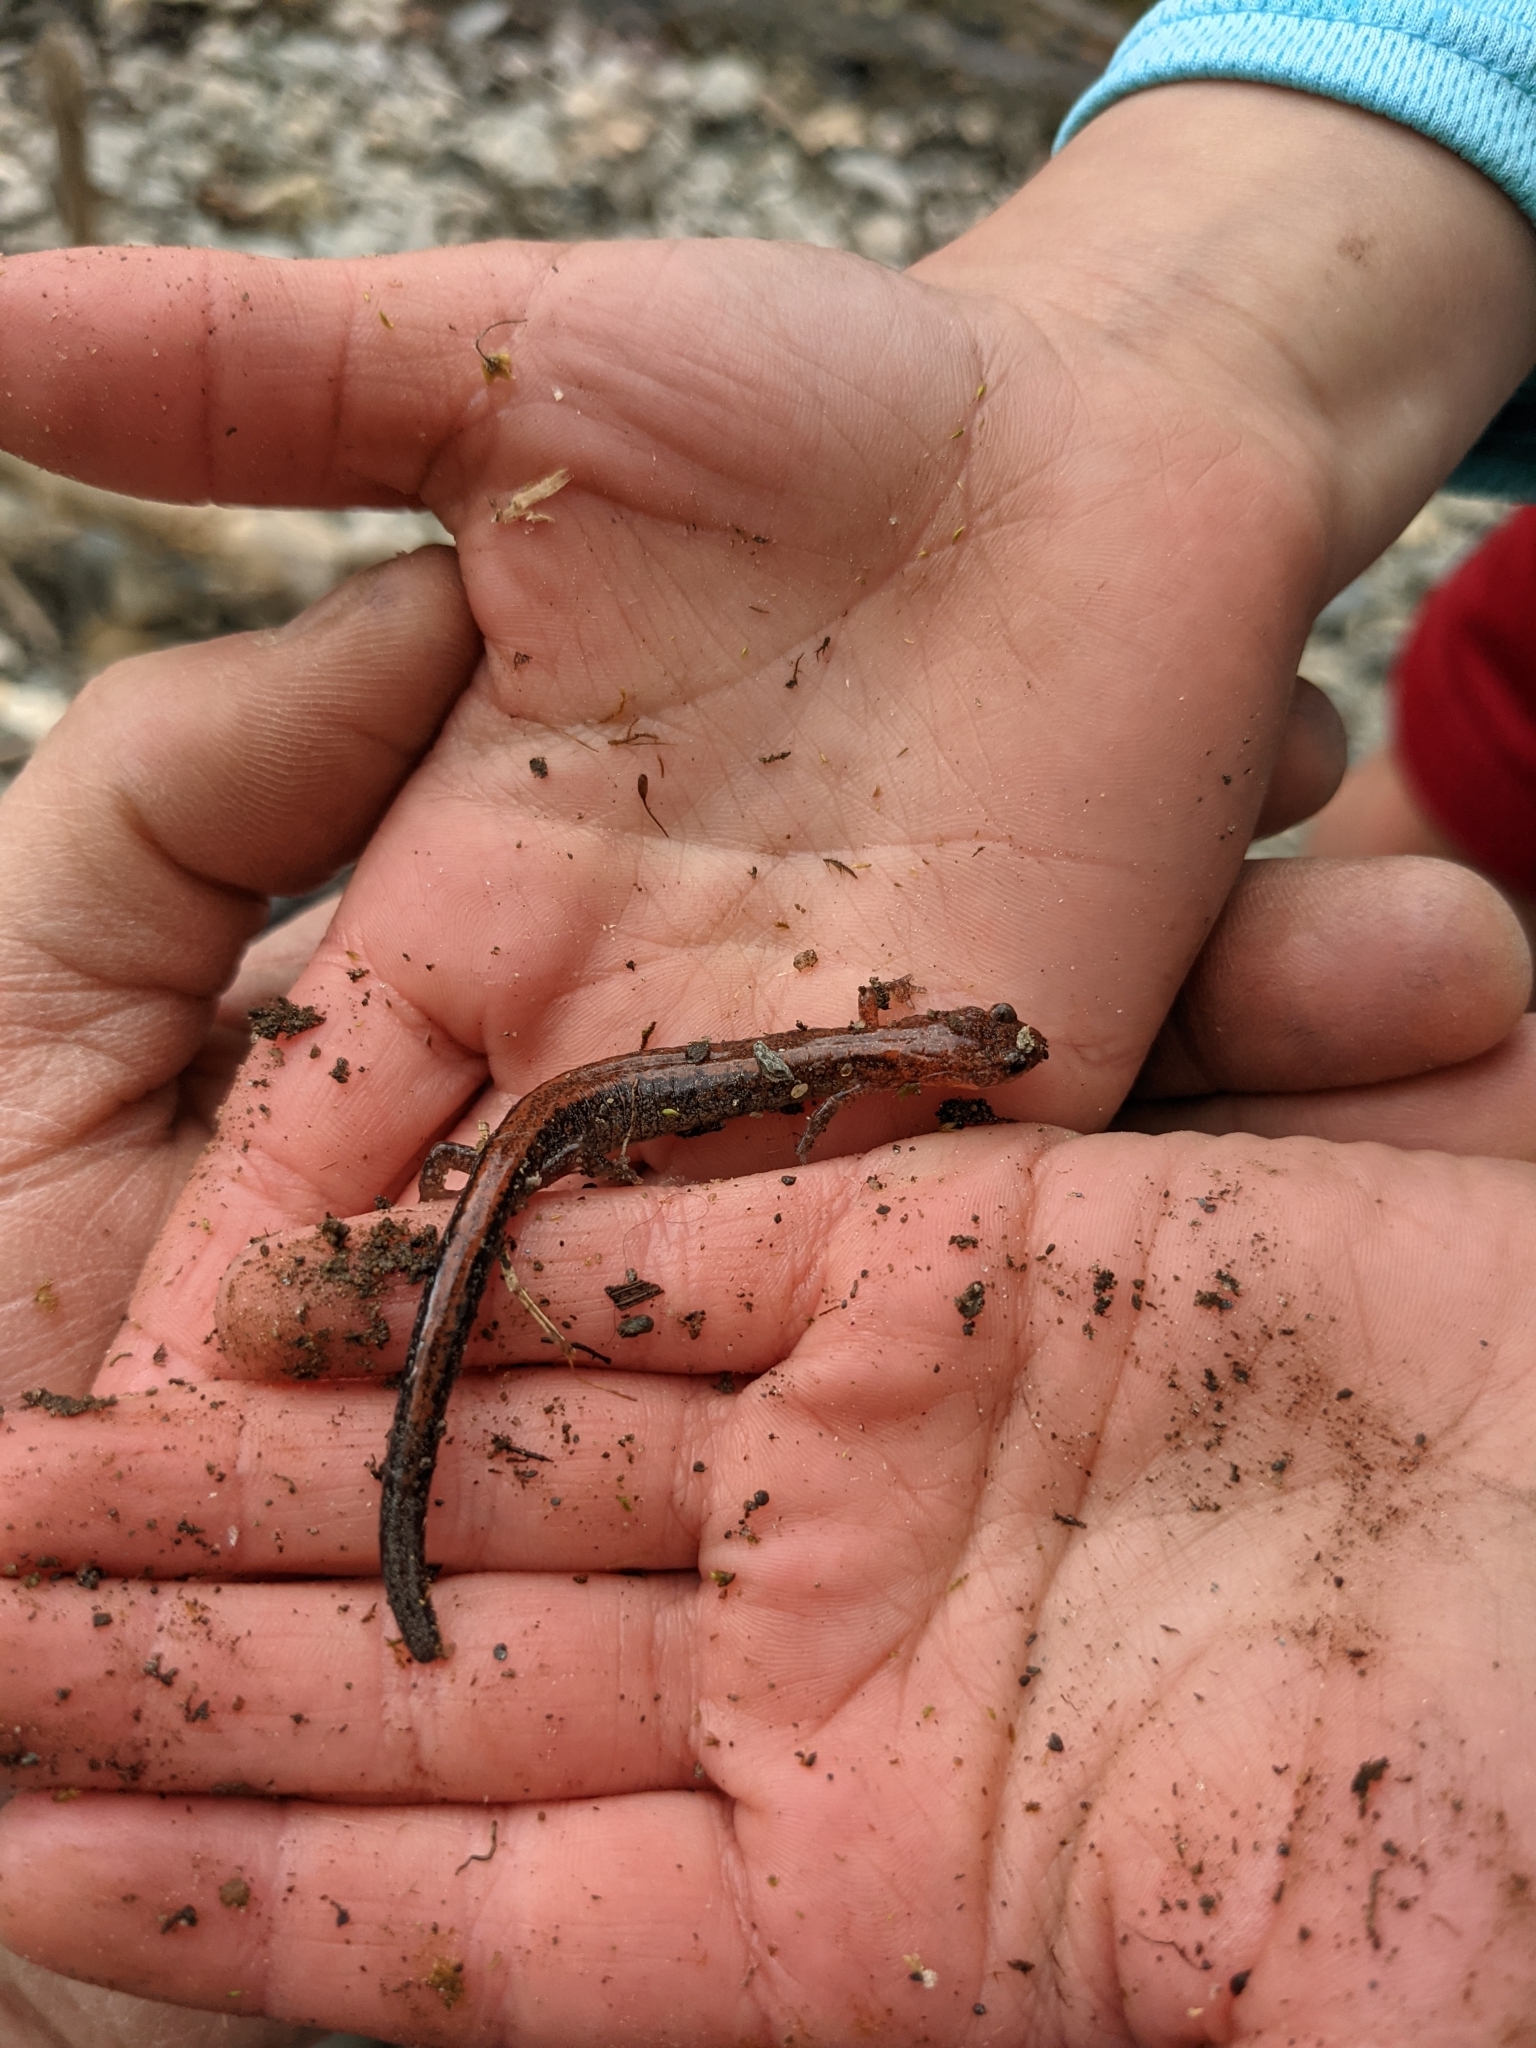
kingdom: Animalia
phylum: Chordata
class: Amphibia
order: Caudata
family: Plethodontidae
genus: Plethodon
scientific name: Plethodon cinereus
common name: Redback salamander
